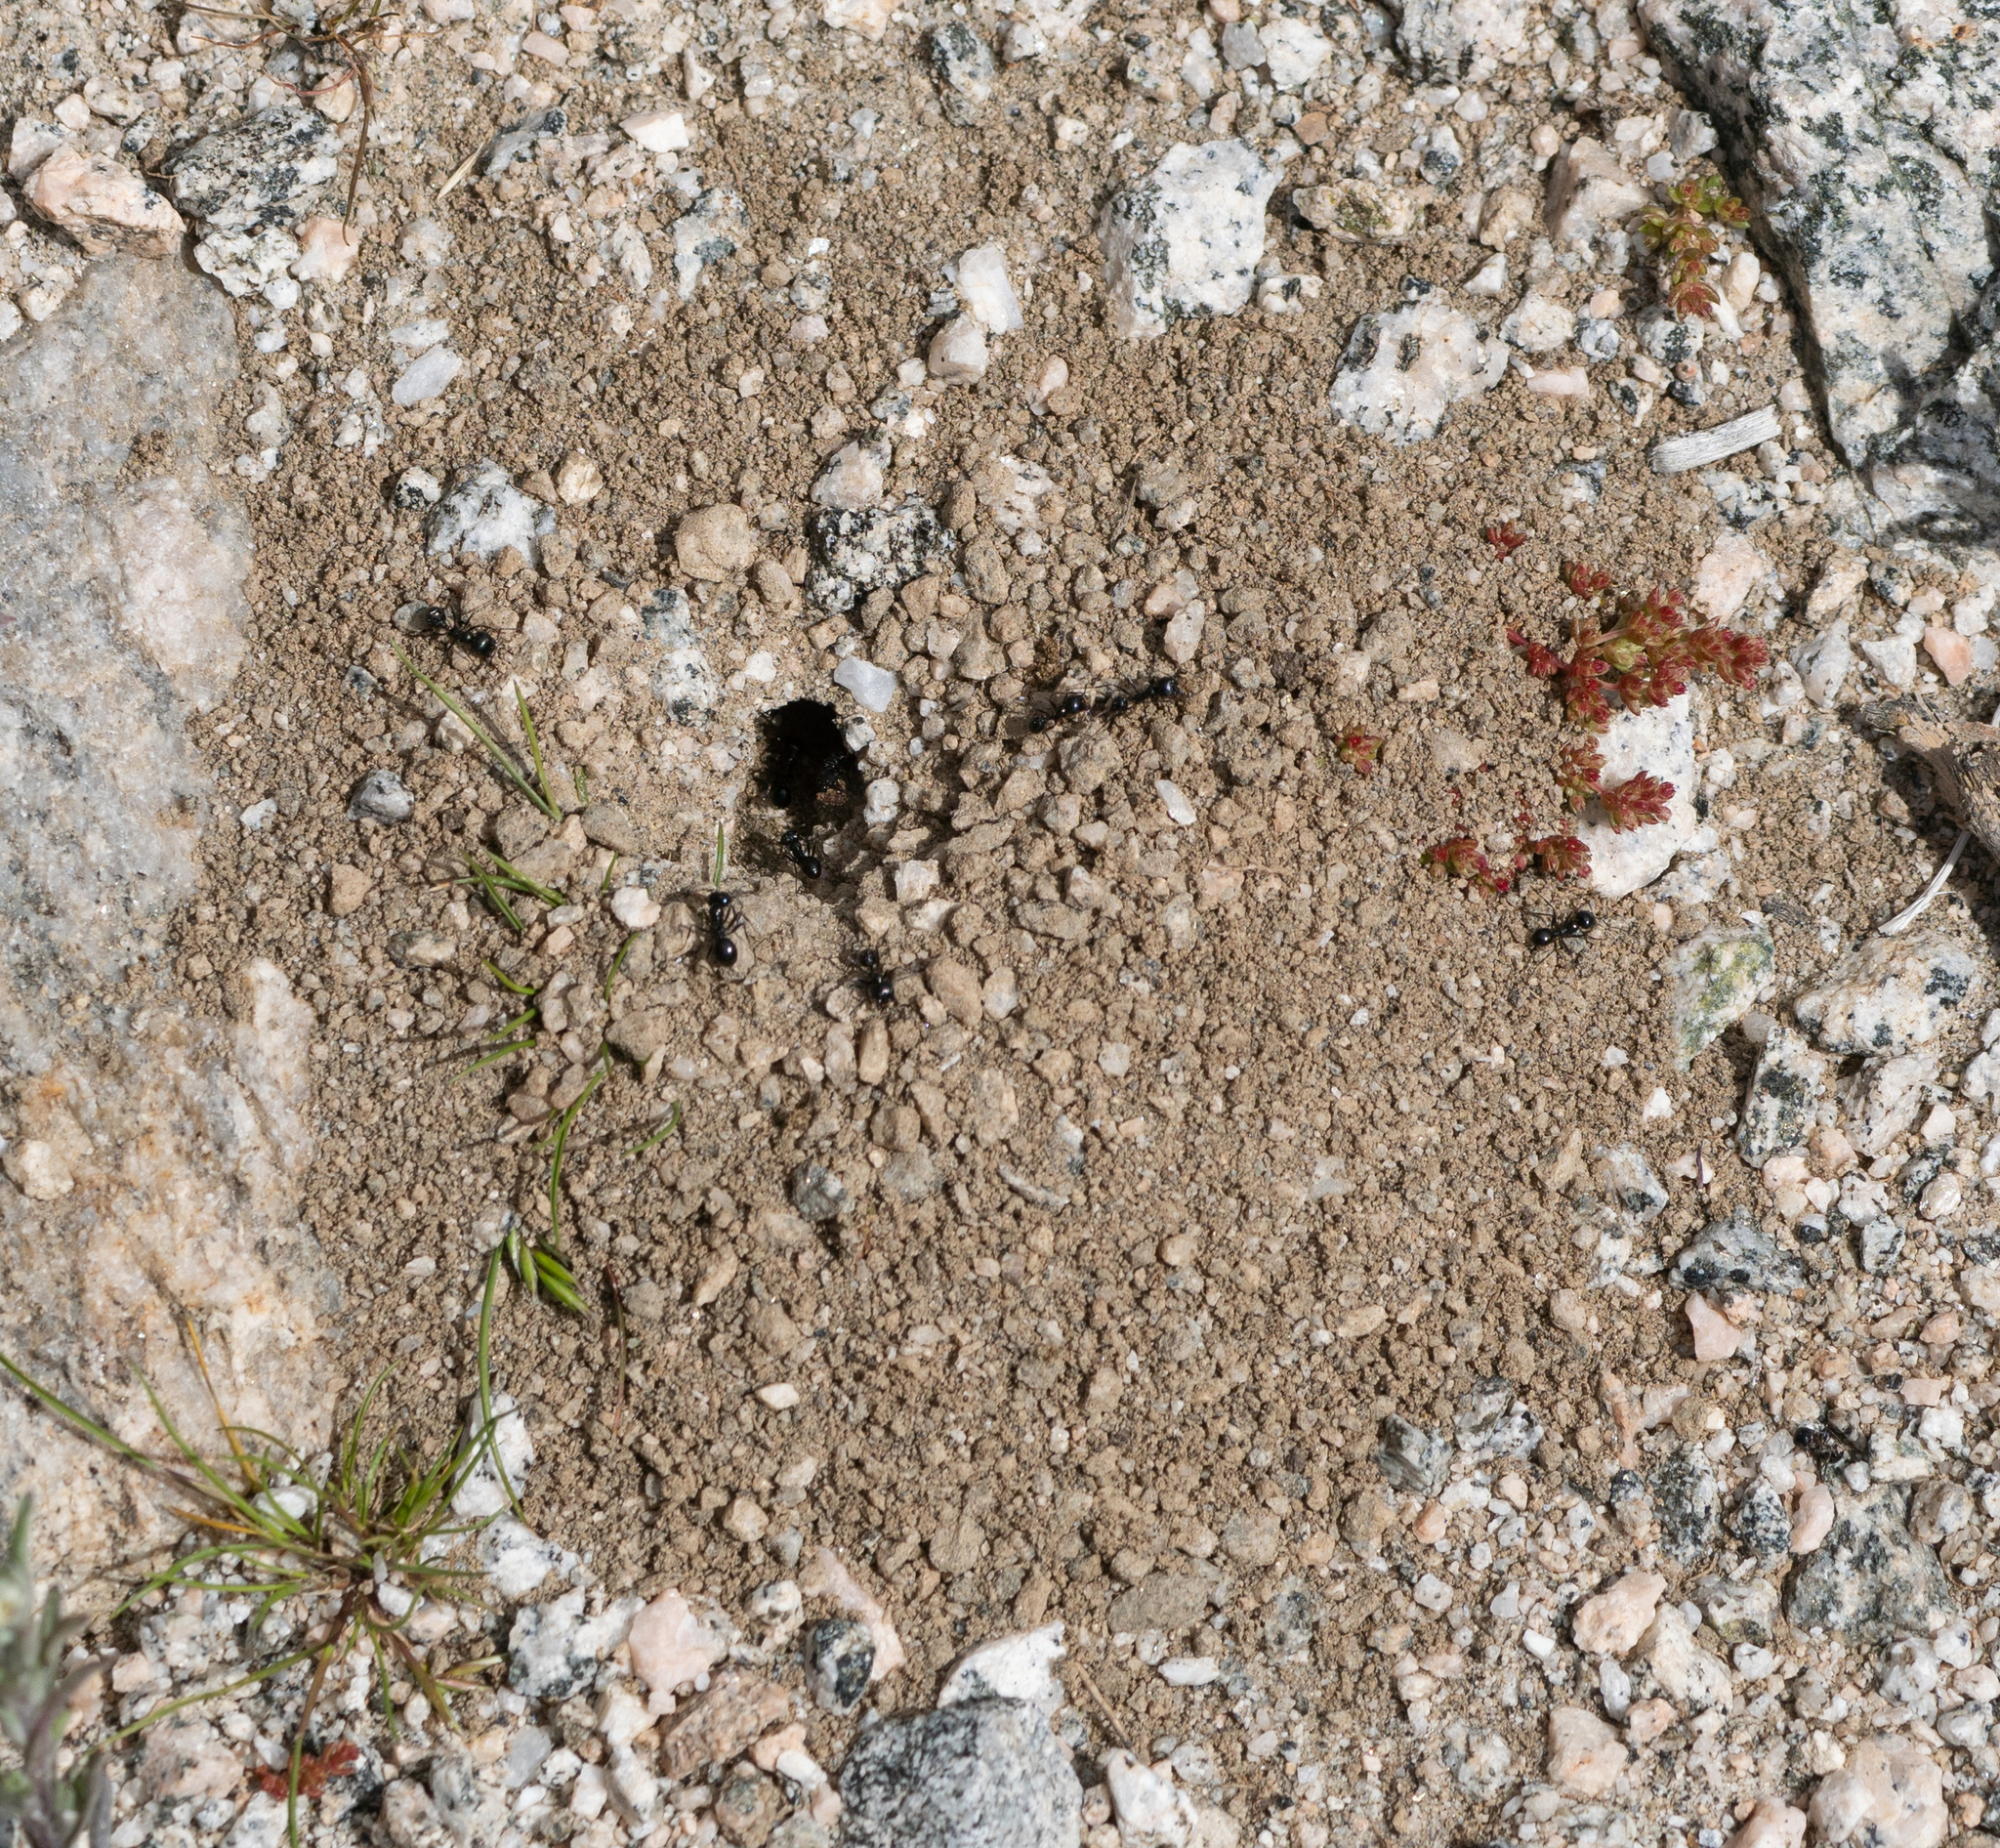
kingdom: Animalia
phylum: Arthropoda
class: Insecta
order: Hymenoptera
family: Formicidae
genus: Messor
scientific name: Messor pergandei
